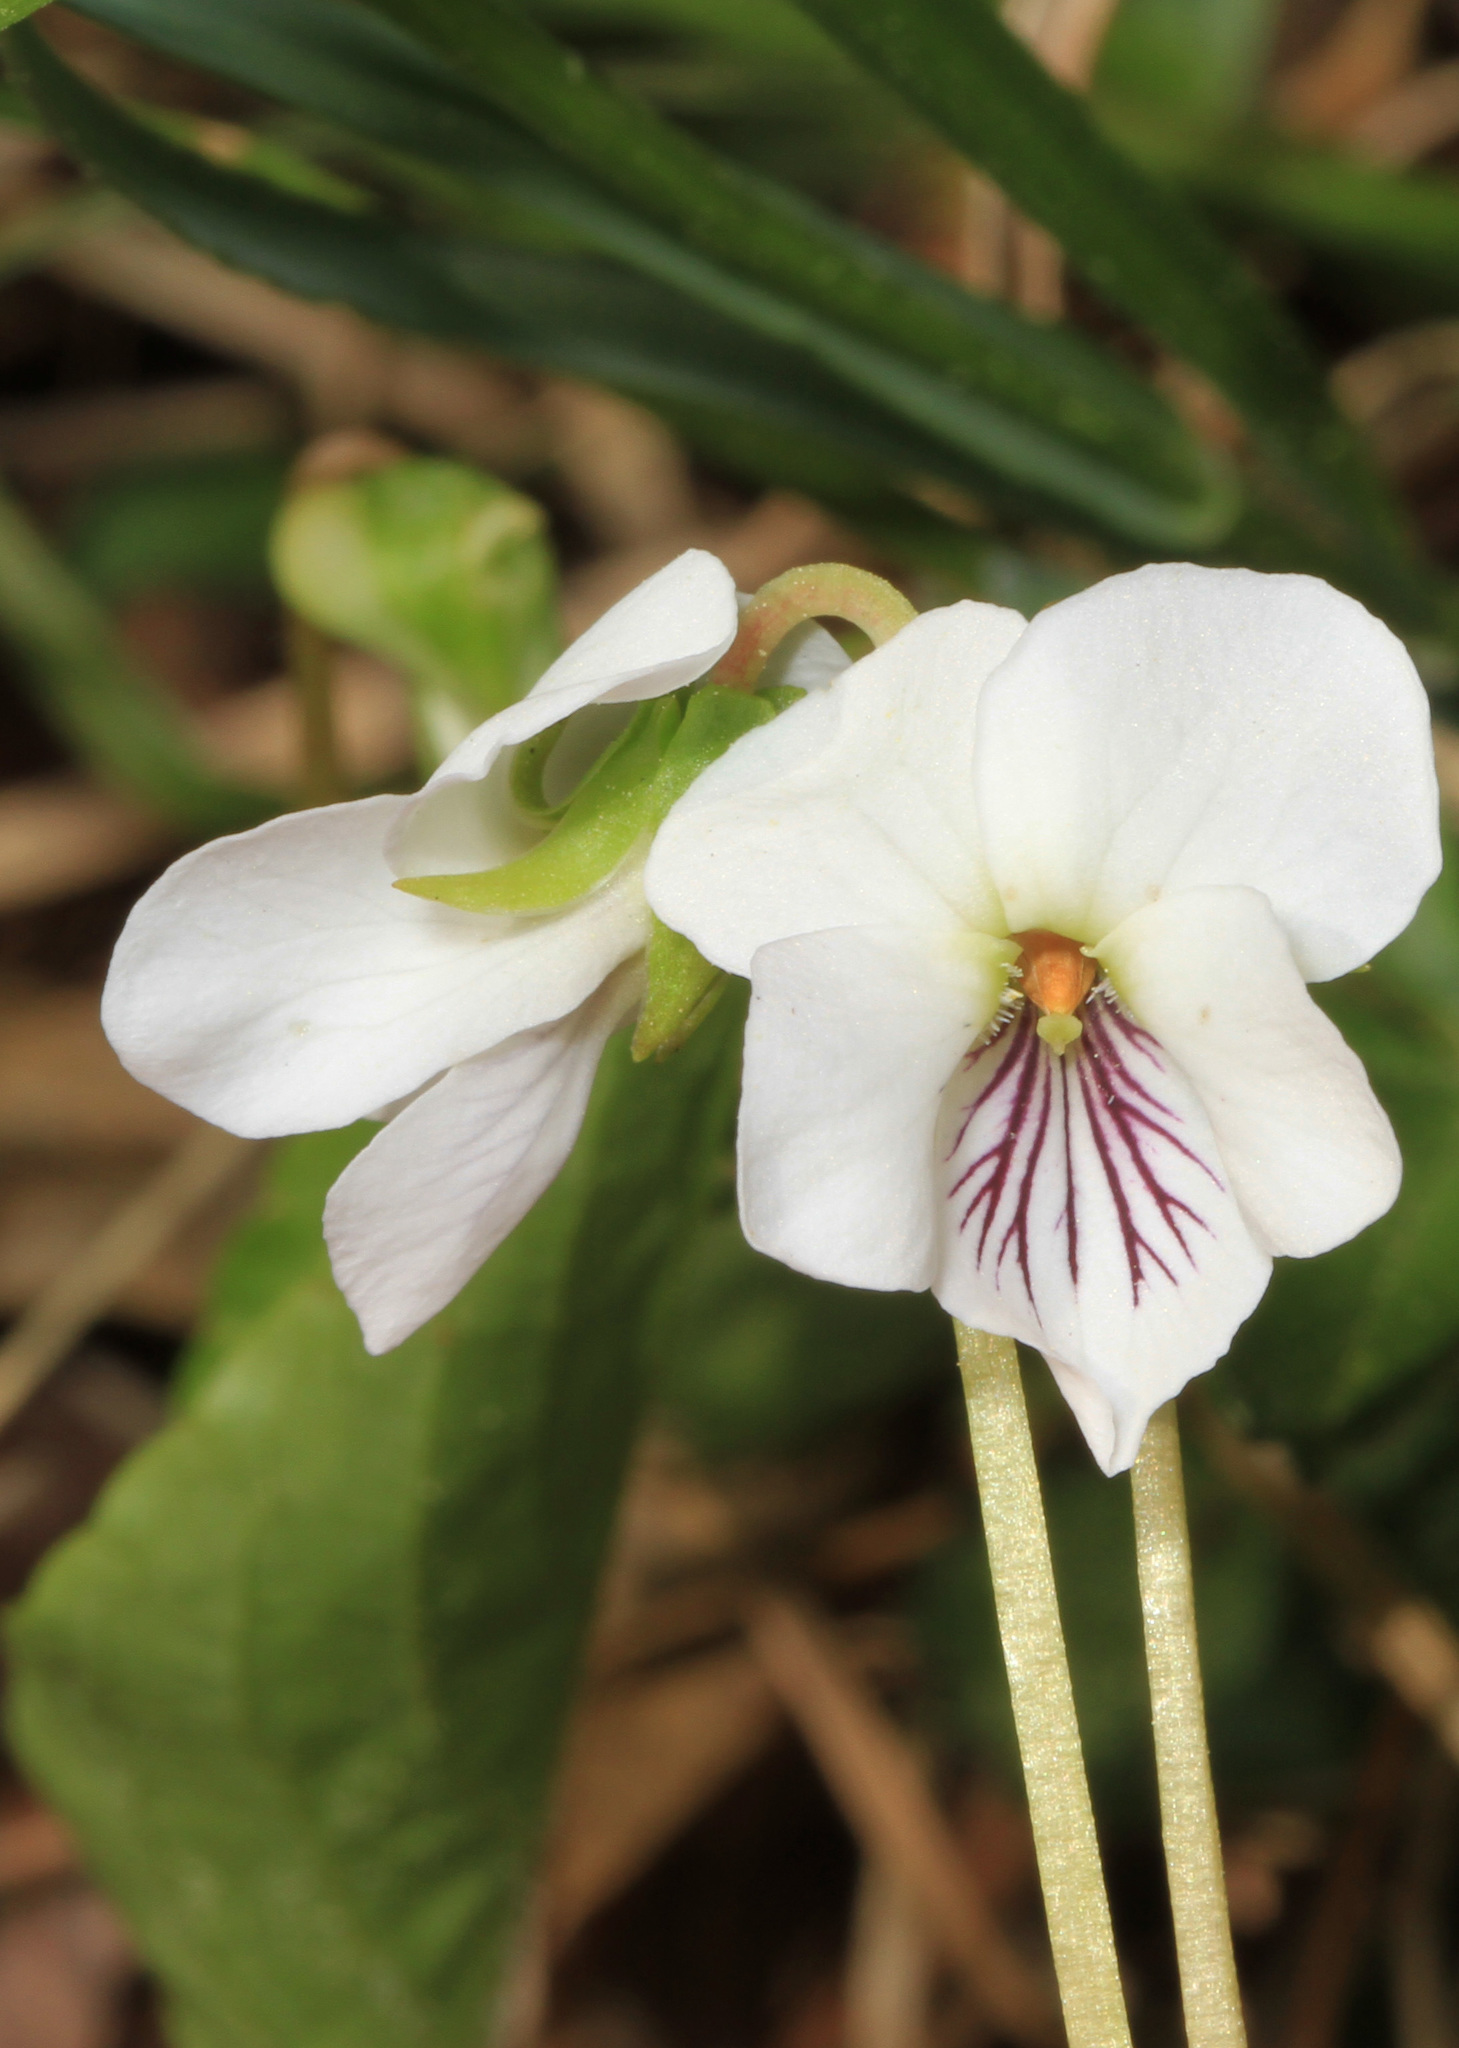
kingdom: Plantae
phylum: Tracheophyta
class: Magnoliopsida
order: Malpighiales
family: Violaceae
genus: Viola
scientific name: Viola minuscula
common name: Northern white violet
